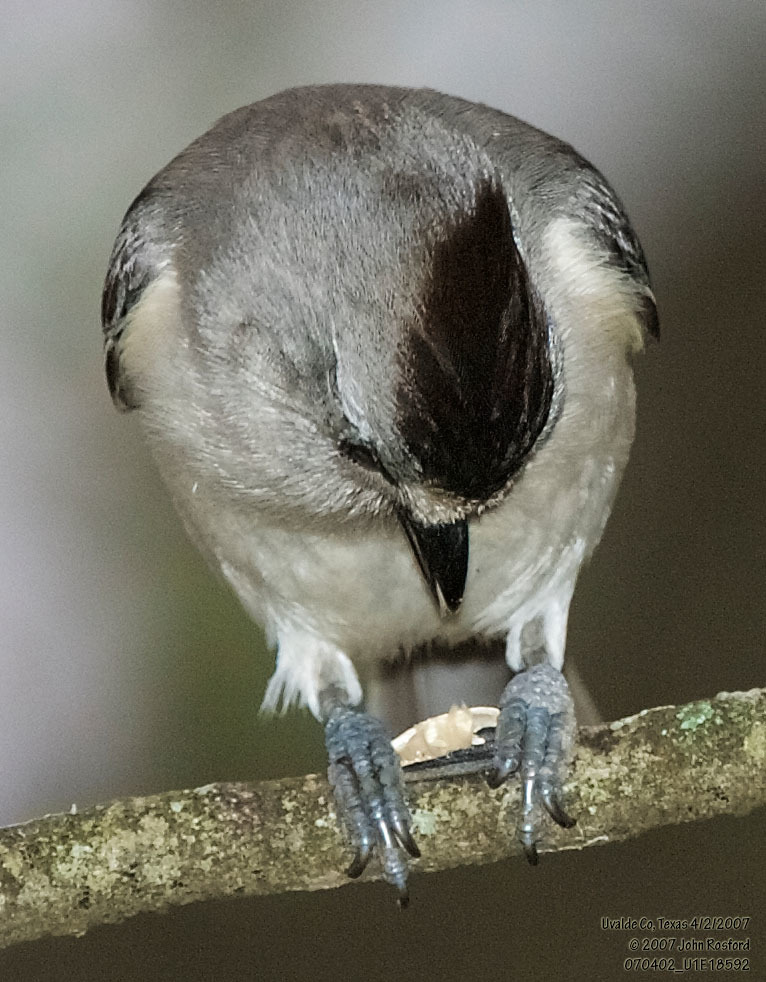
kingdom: Animalia
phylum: Chordata
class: Aves
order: Passeriformes
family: Paridae
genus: Baeolophus
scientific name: Baeolophus atricristatus
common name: Black-crested titmouse
